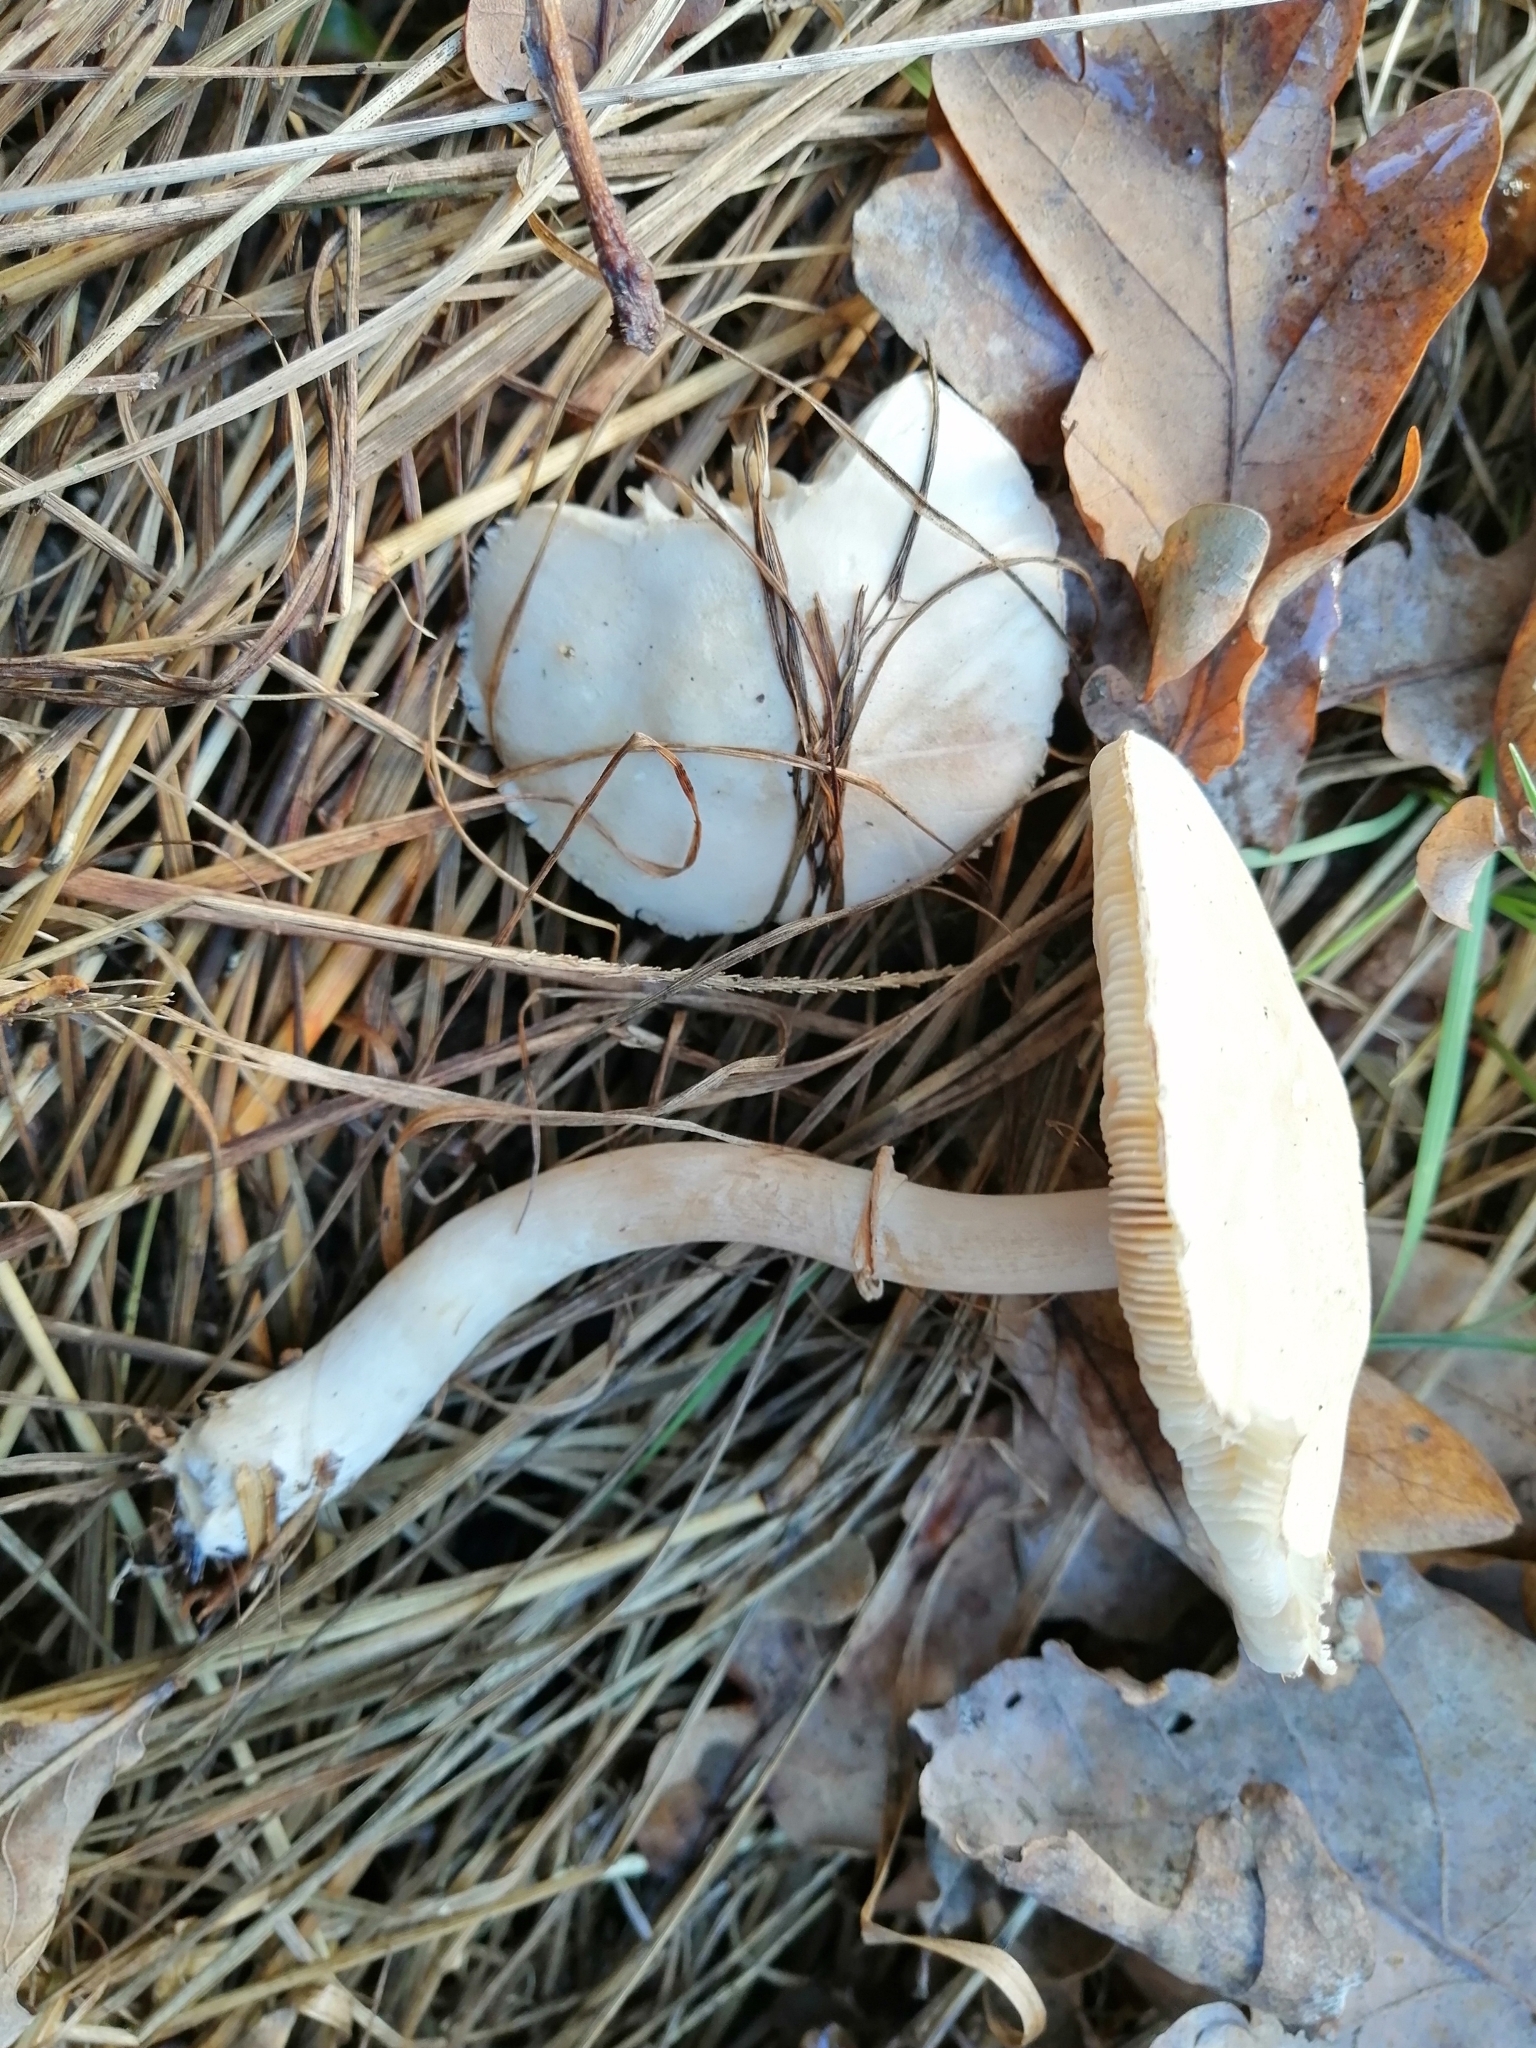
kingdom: Fungi
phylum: Basidiomycota
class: Agaricomycetes
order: Agaricales
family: Agaricaceae
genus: Leucoagaricus
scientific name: Leucoagaricus leucothites
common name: White dapperling
